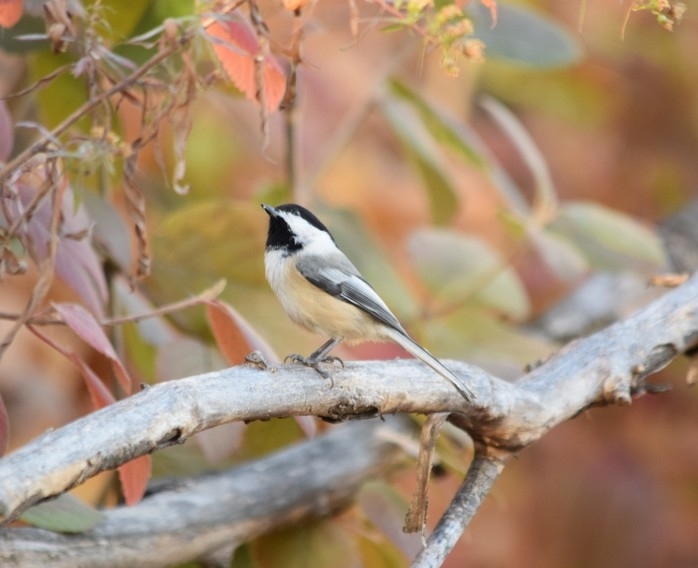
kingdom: Animalia
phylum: Chordata
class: Aves
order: Passeriformes
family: Paridae
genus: Poecile
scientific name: Poecile atricapillus
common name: Black-capped chickadee
